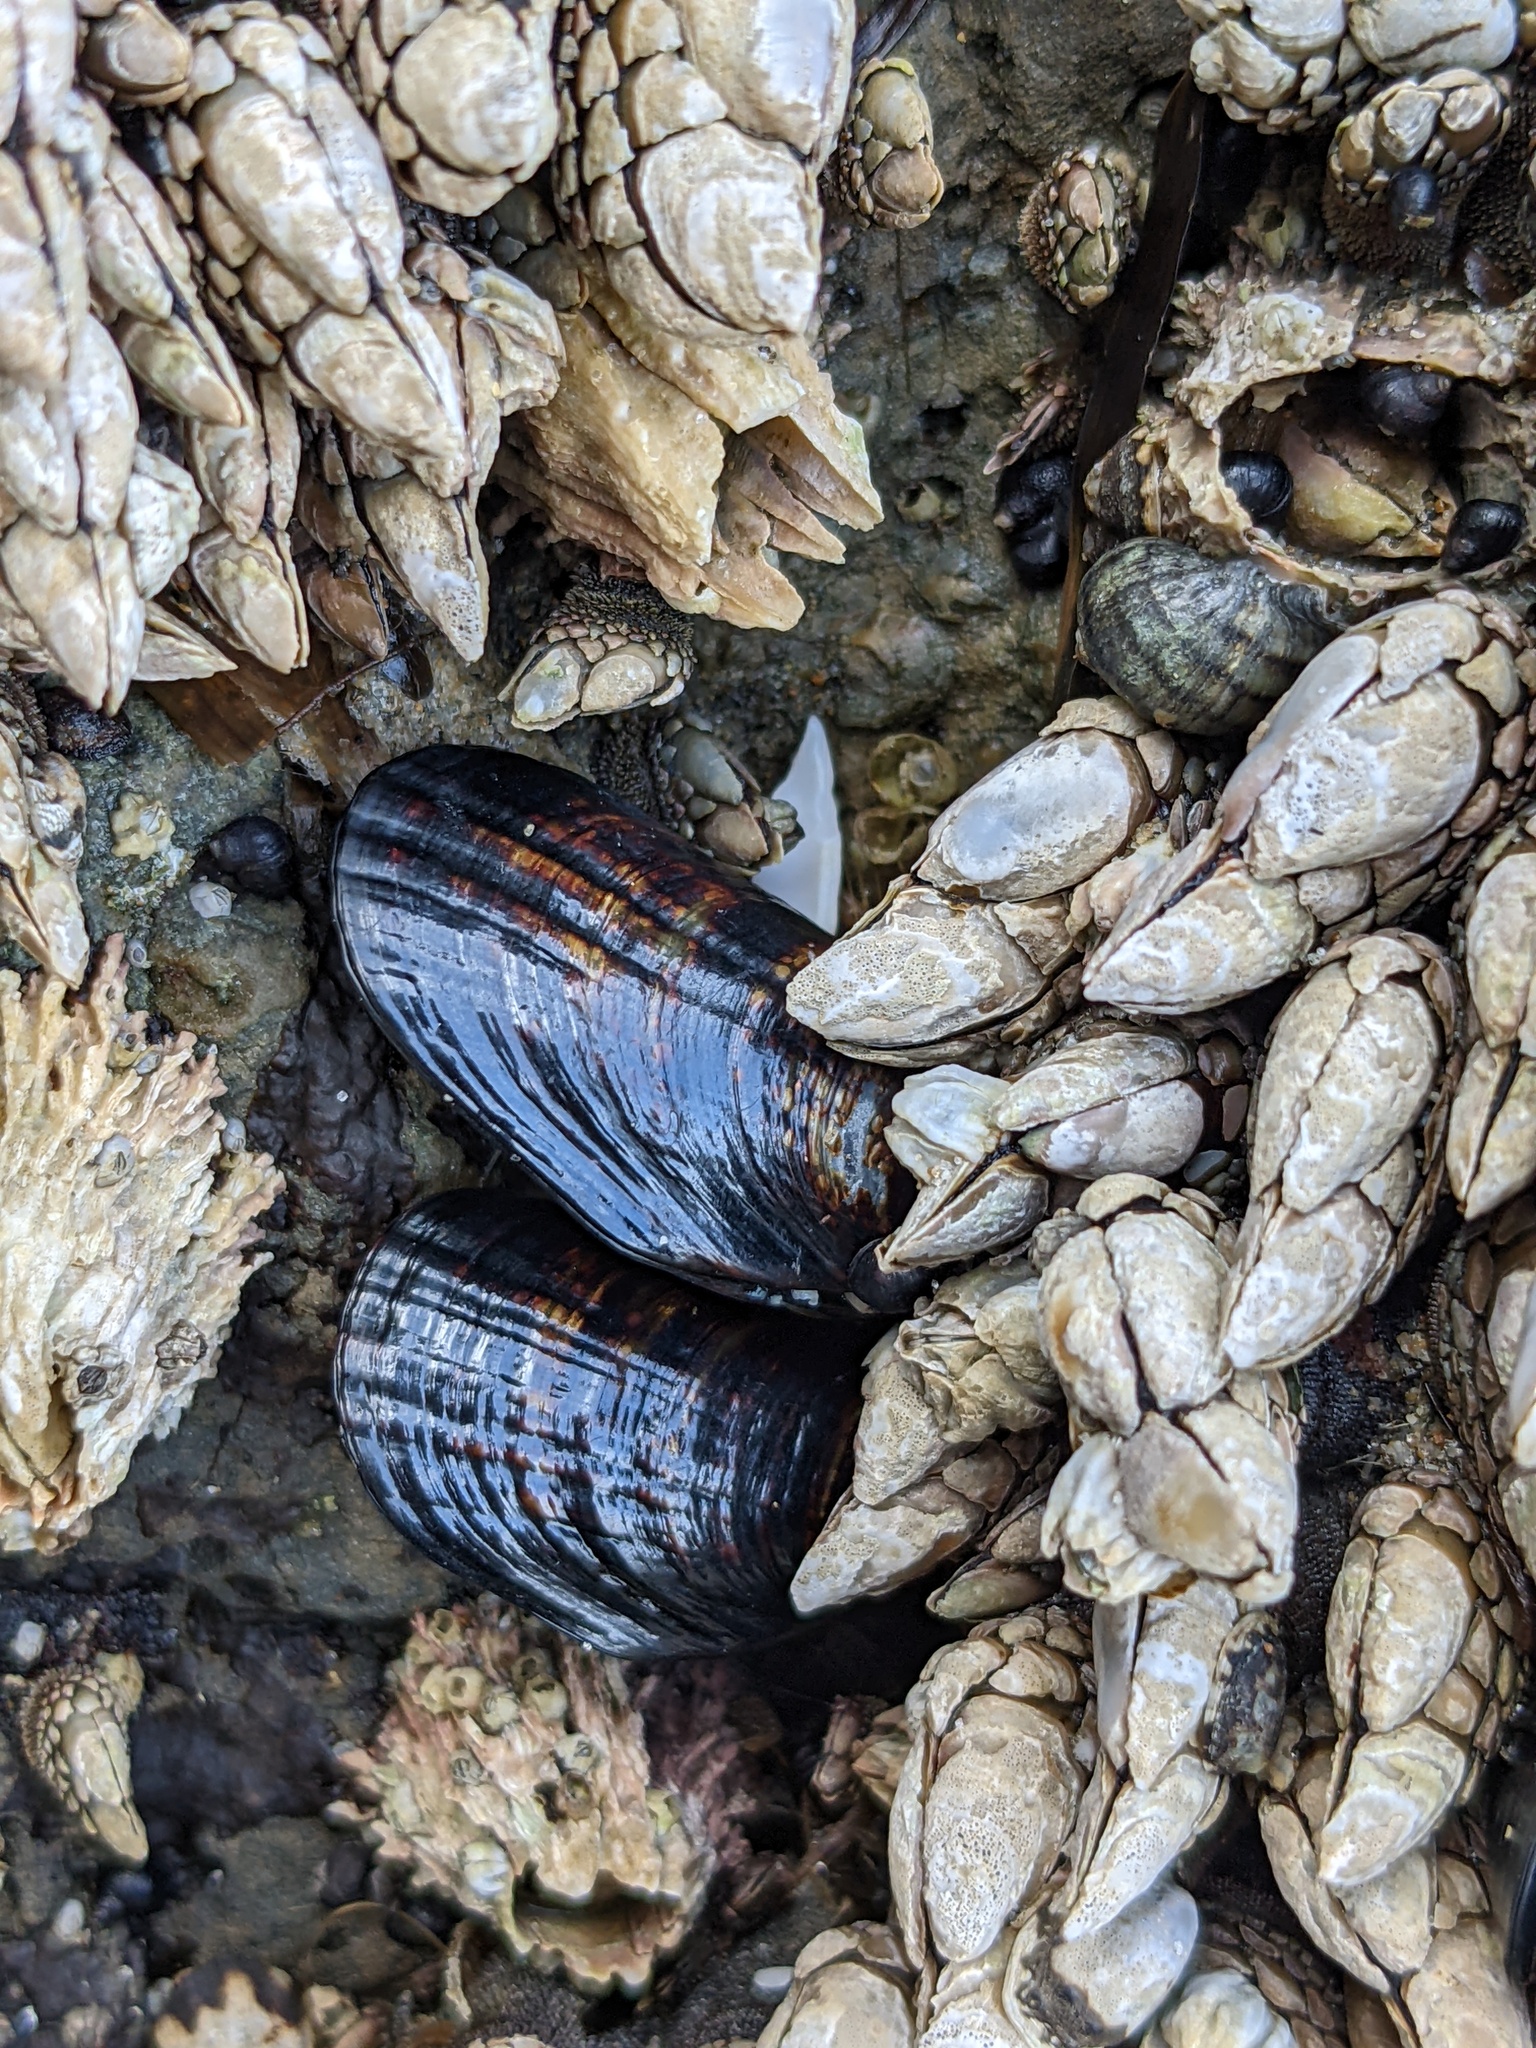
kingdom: Animalia
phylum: Mollusca
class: Bivalvia
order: Mytilida
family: Mytilidae
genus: Mytilus
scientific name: Mytilus californianus
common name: California mussel
